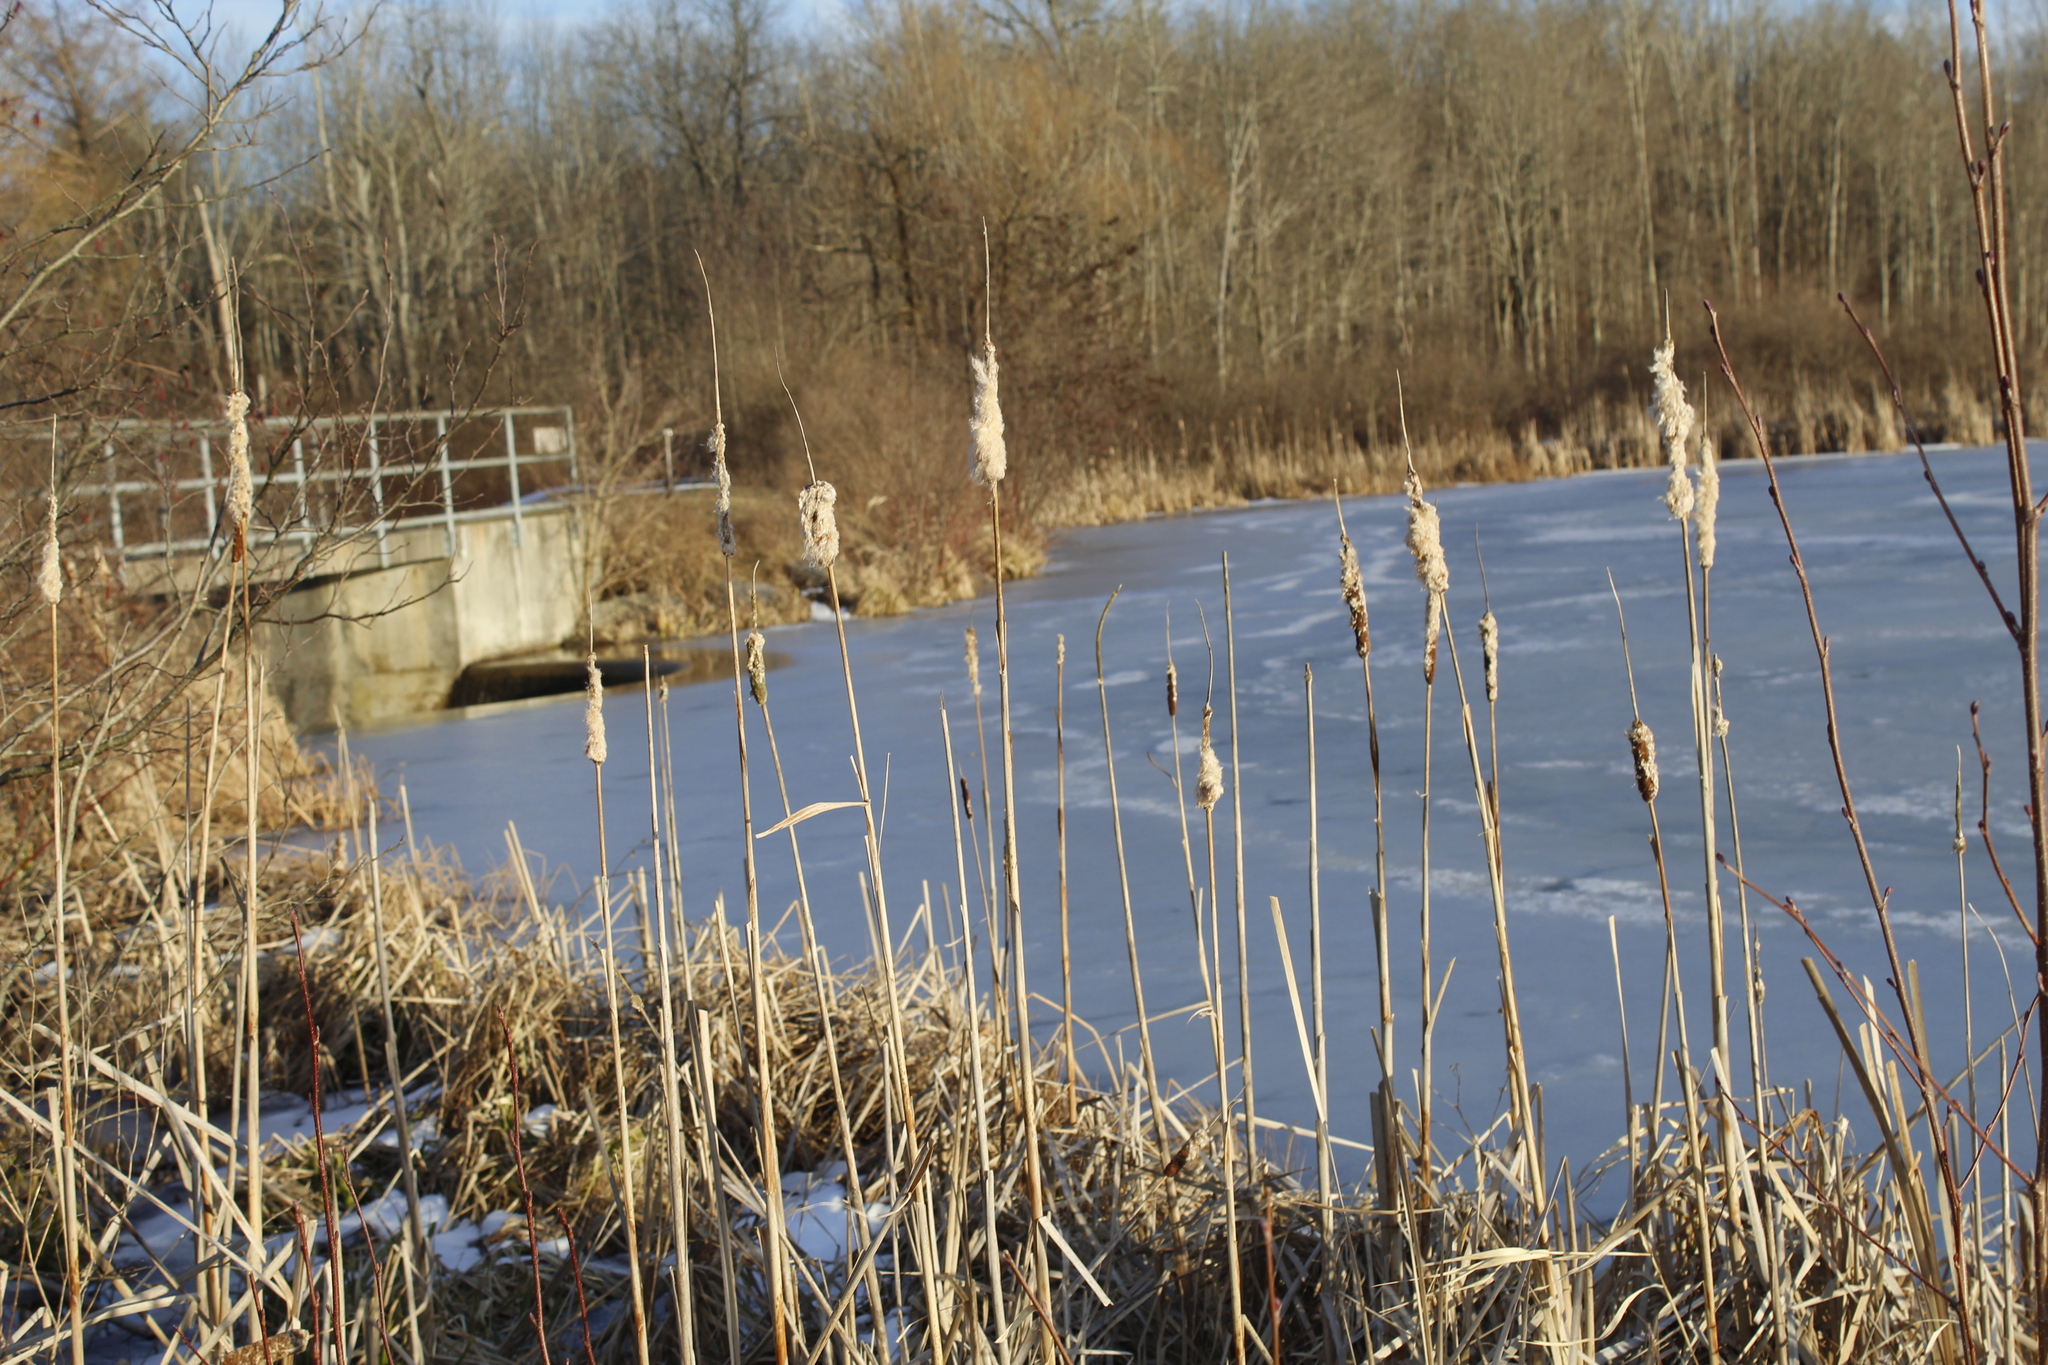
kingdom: Plantae
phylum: Tracheophyta
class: Liliopsida
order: Poales
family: Typhaceae
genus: Typha
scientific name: Typha latifolia
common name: Broadleaf cattail
